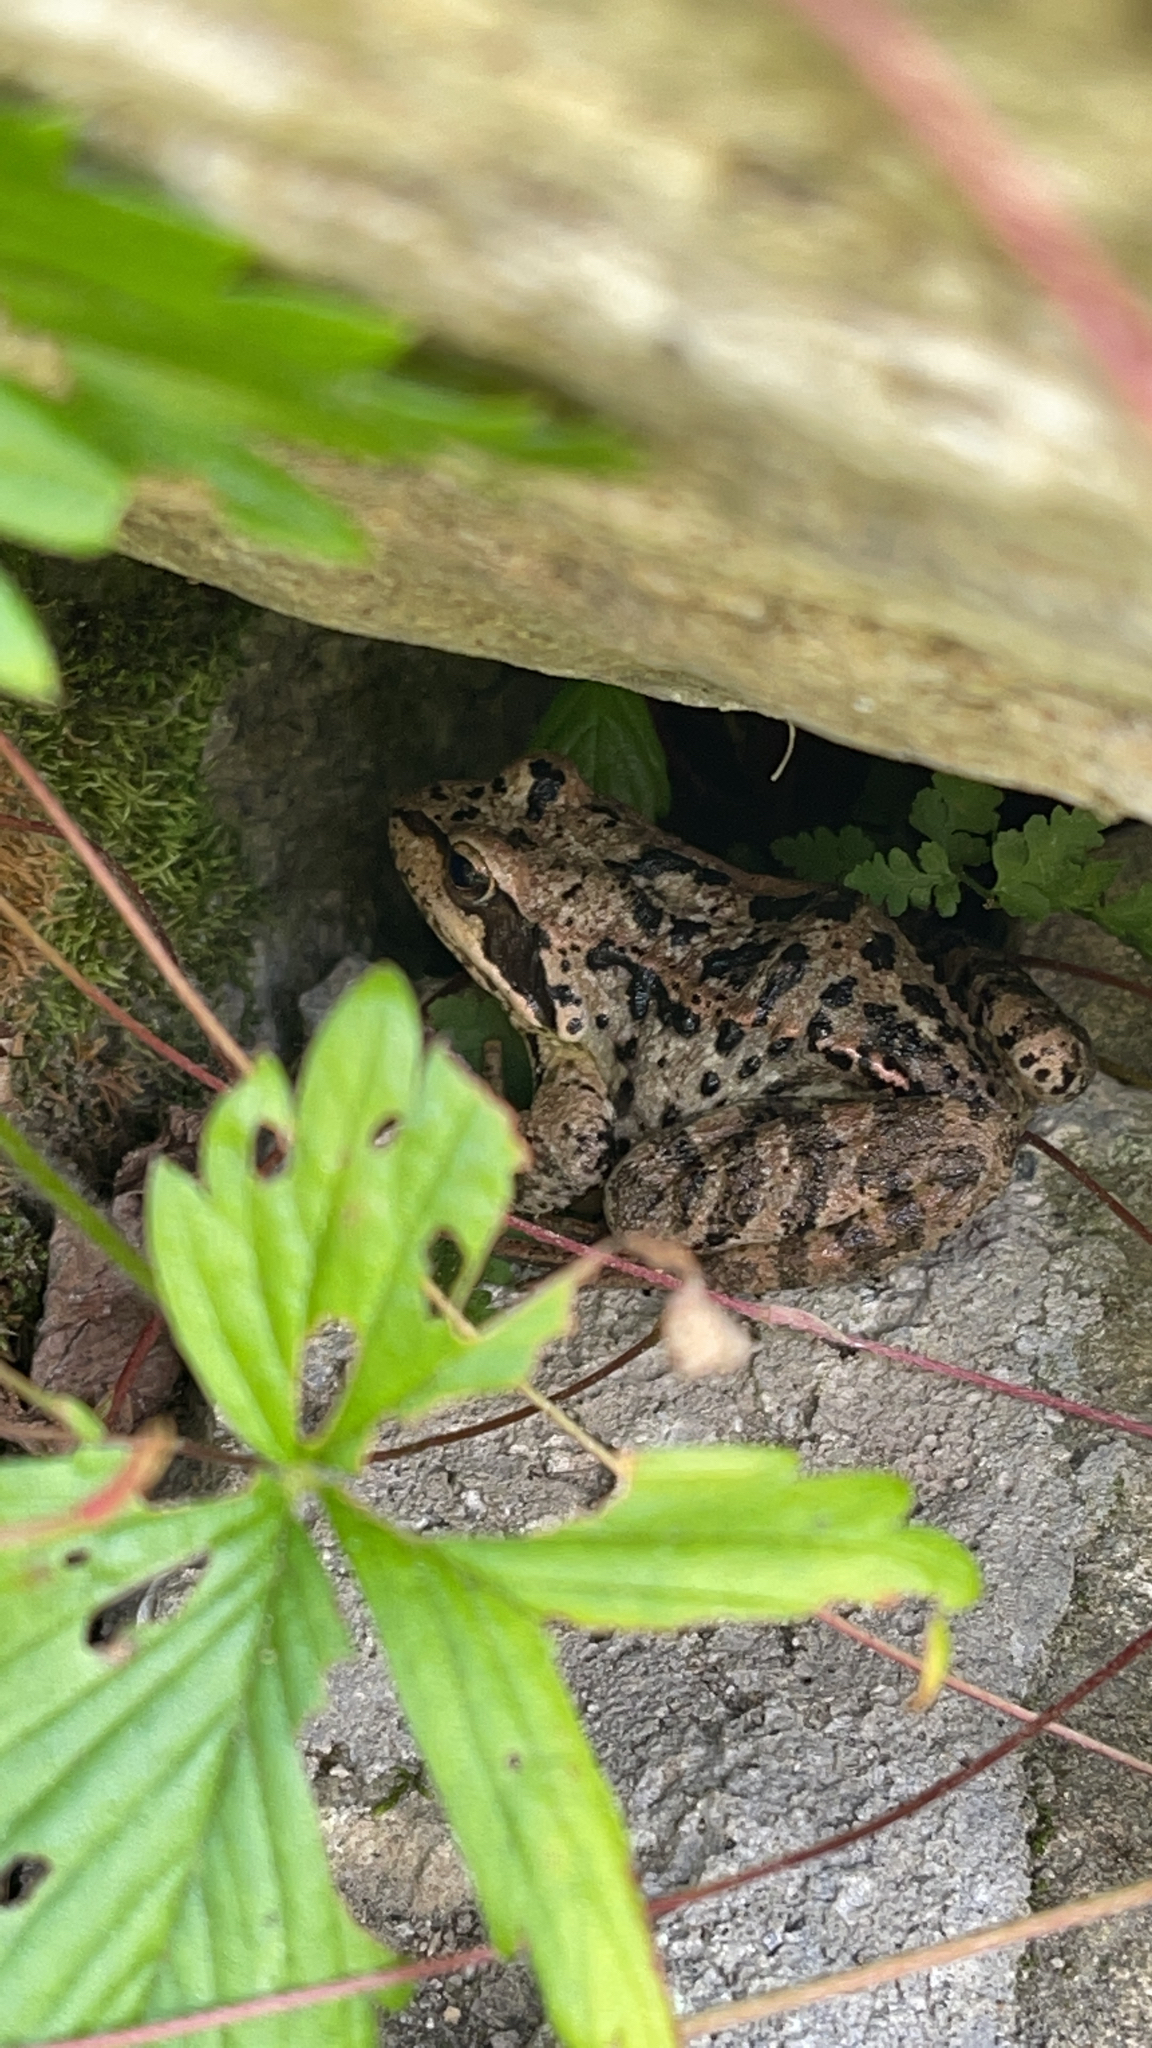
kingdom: Animalia
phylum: Chordata
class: Amphibia
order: Anura
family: Ranidae
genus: Rana
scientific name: Rana temporaria
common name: Common frog
